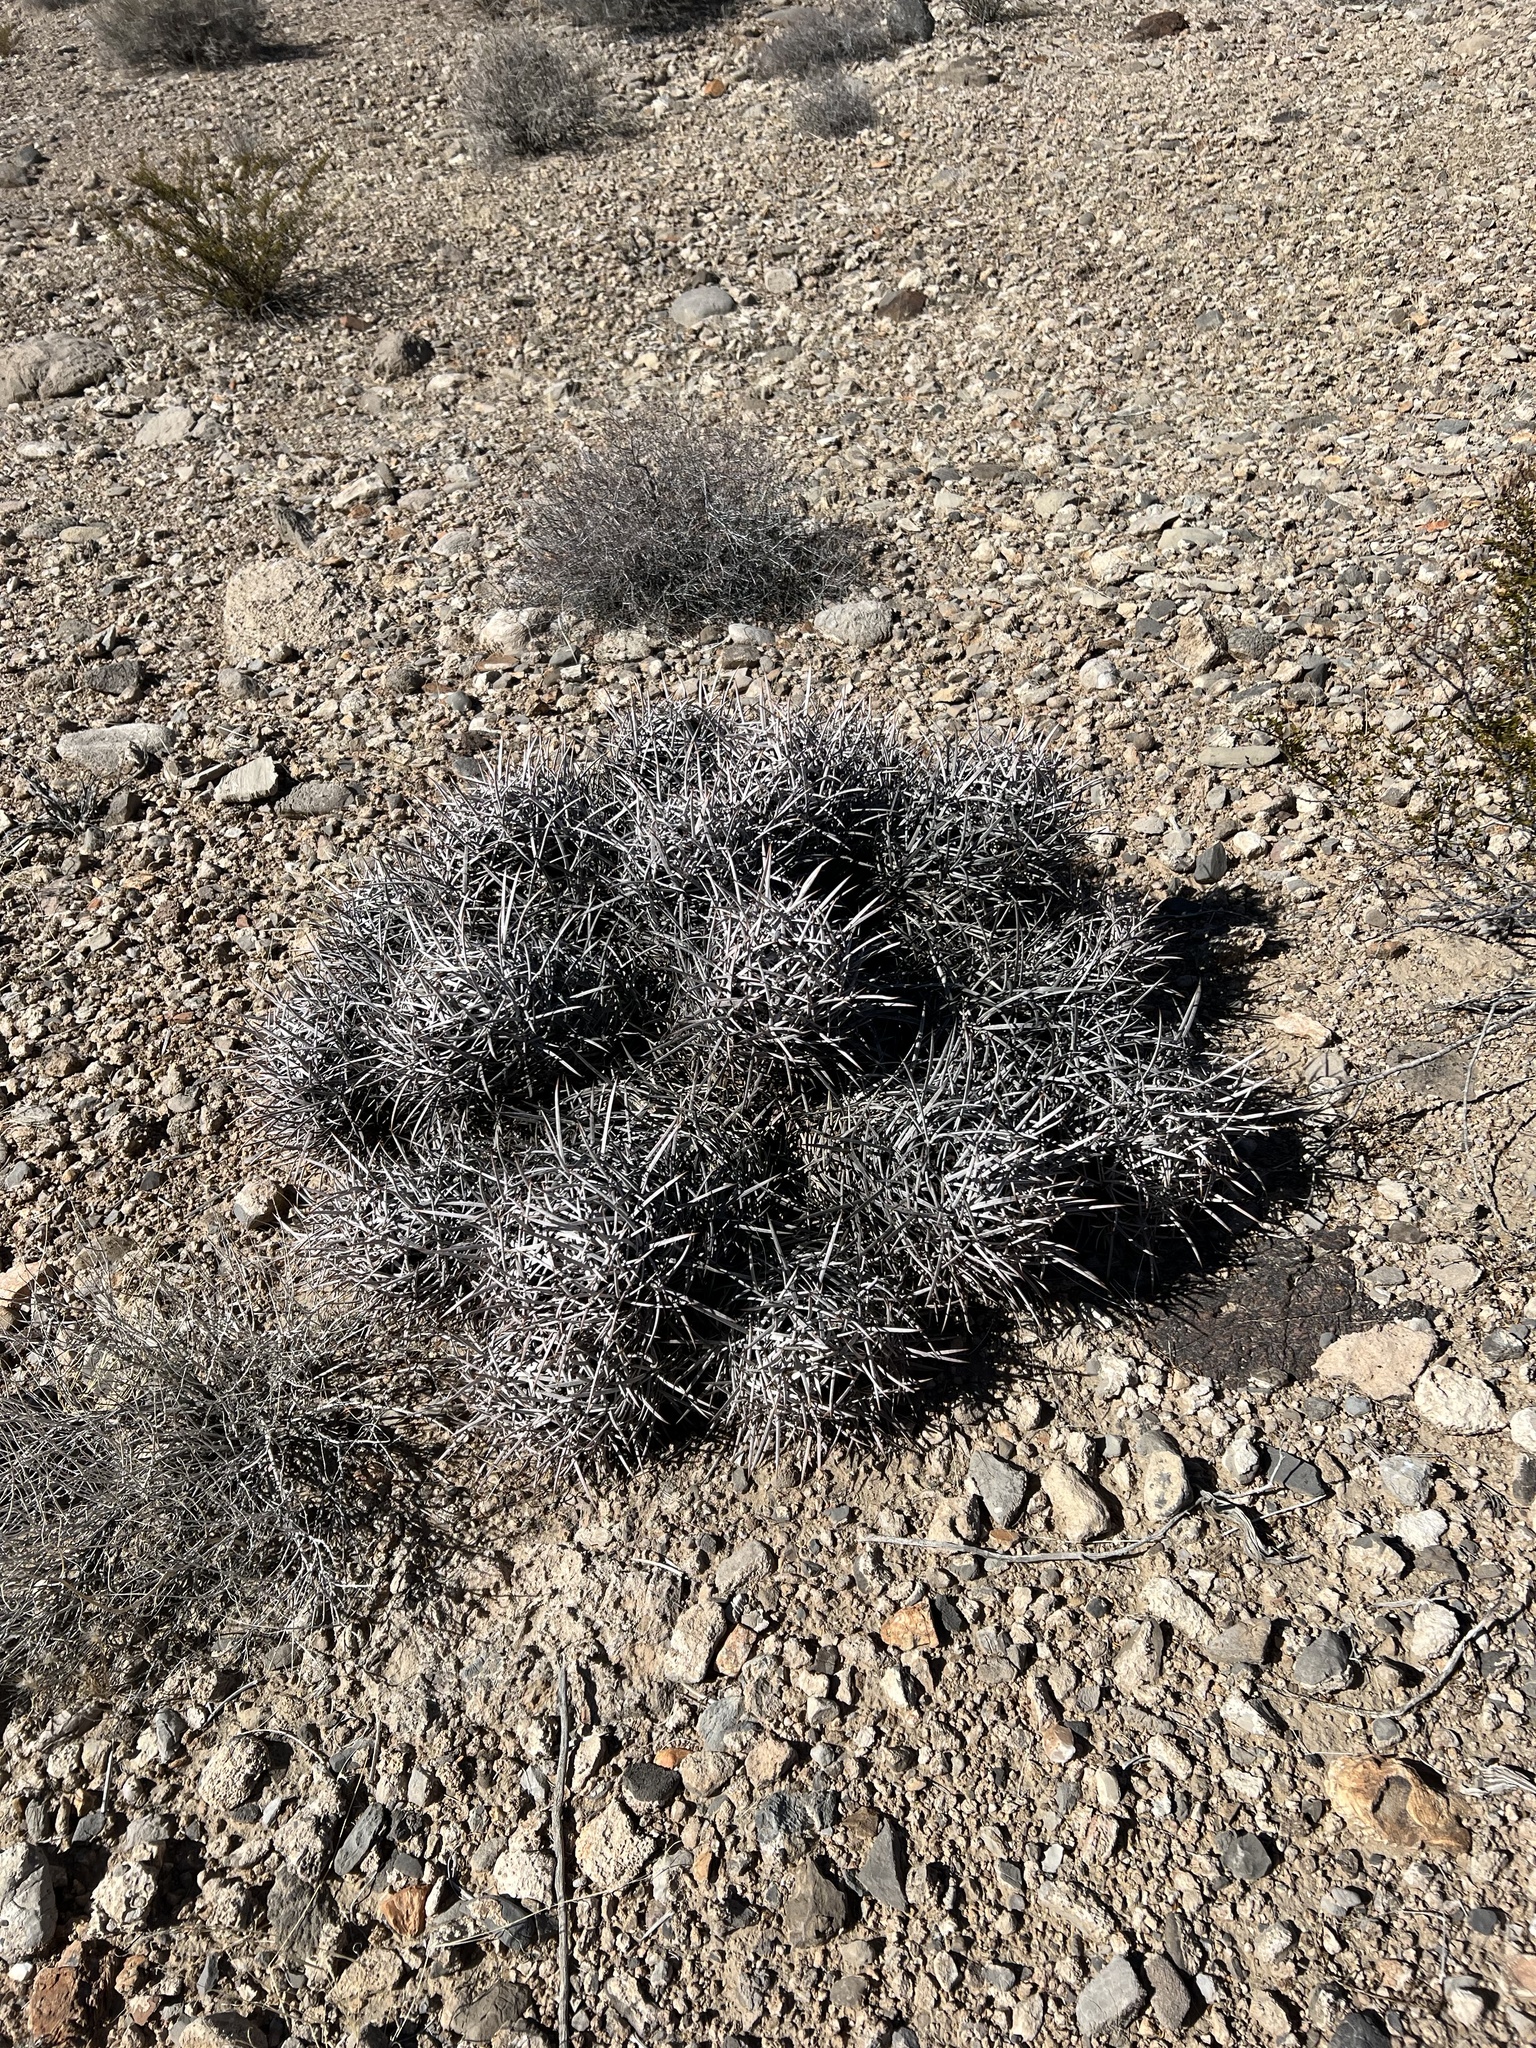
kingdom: Plantae
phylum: Tracheophyta
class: Magnoliopsida
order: Caryophyllales
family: Cactaceae
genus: Echinocactus
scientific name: Echinocactus polycephalus
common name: Cottontop cactus
